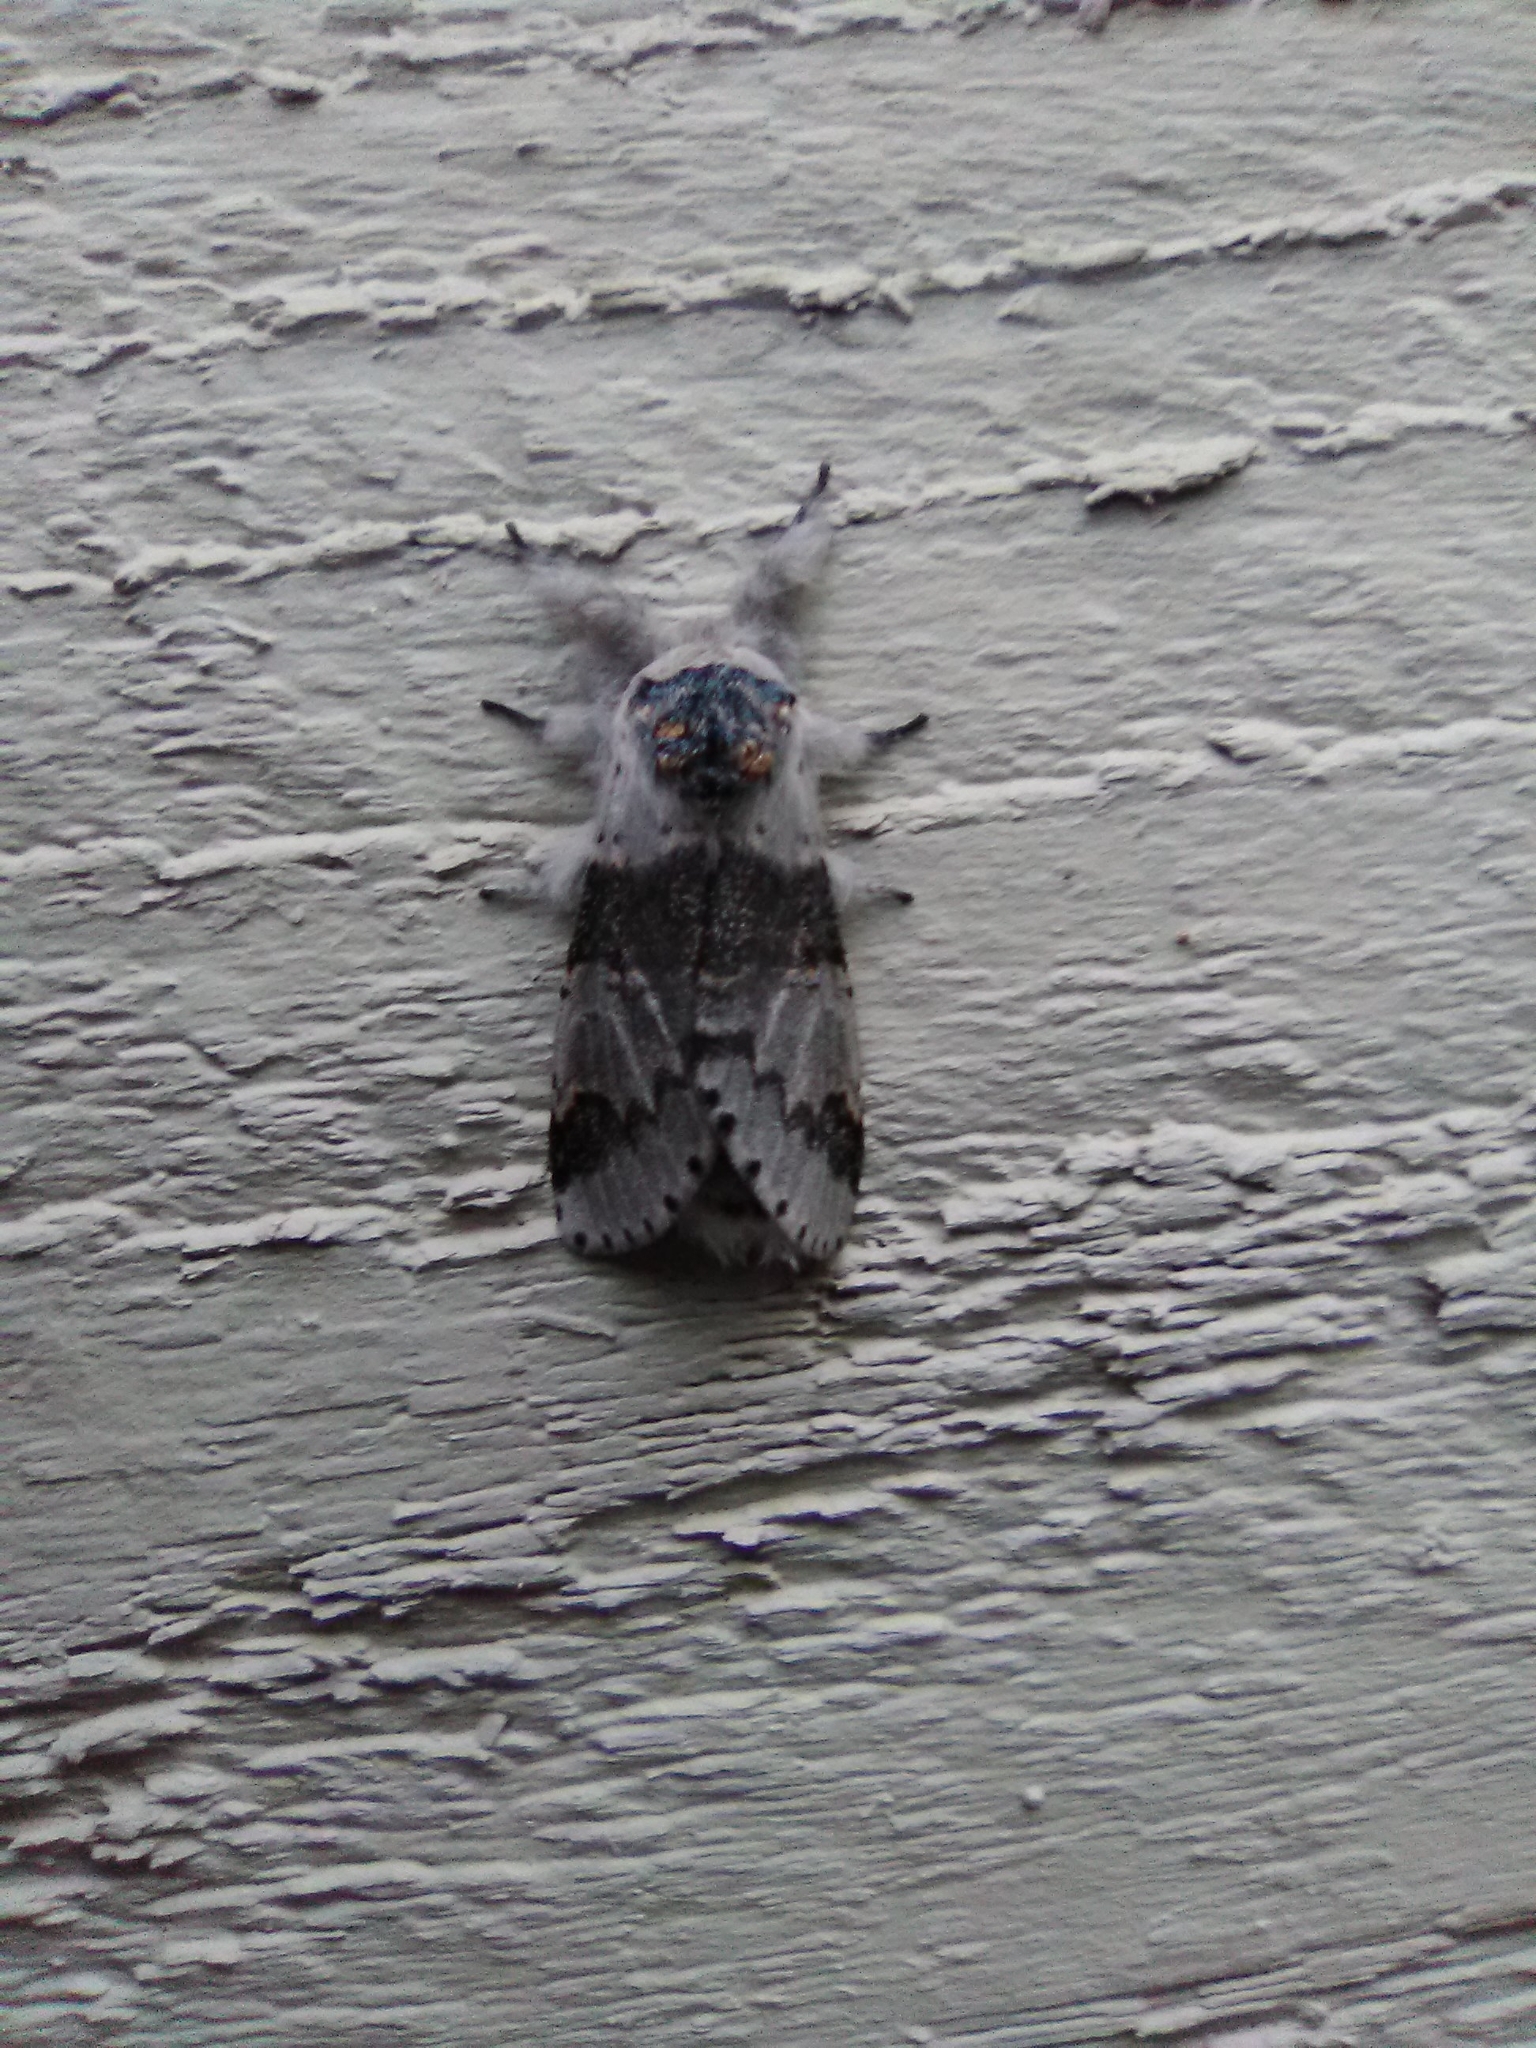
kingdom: Animalia
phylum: Arthropoda
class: Insecta
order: Lepidoptera
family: Notodontidae
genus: Furcula
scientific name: Furcula occidentalis
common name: Western furcula moth
